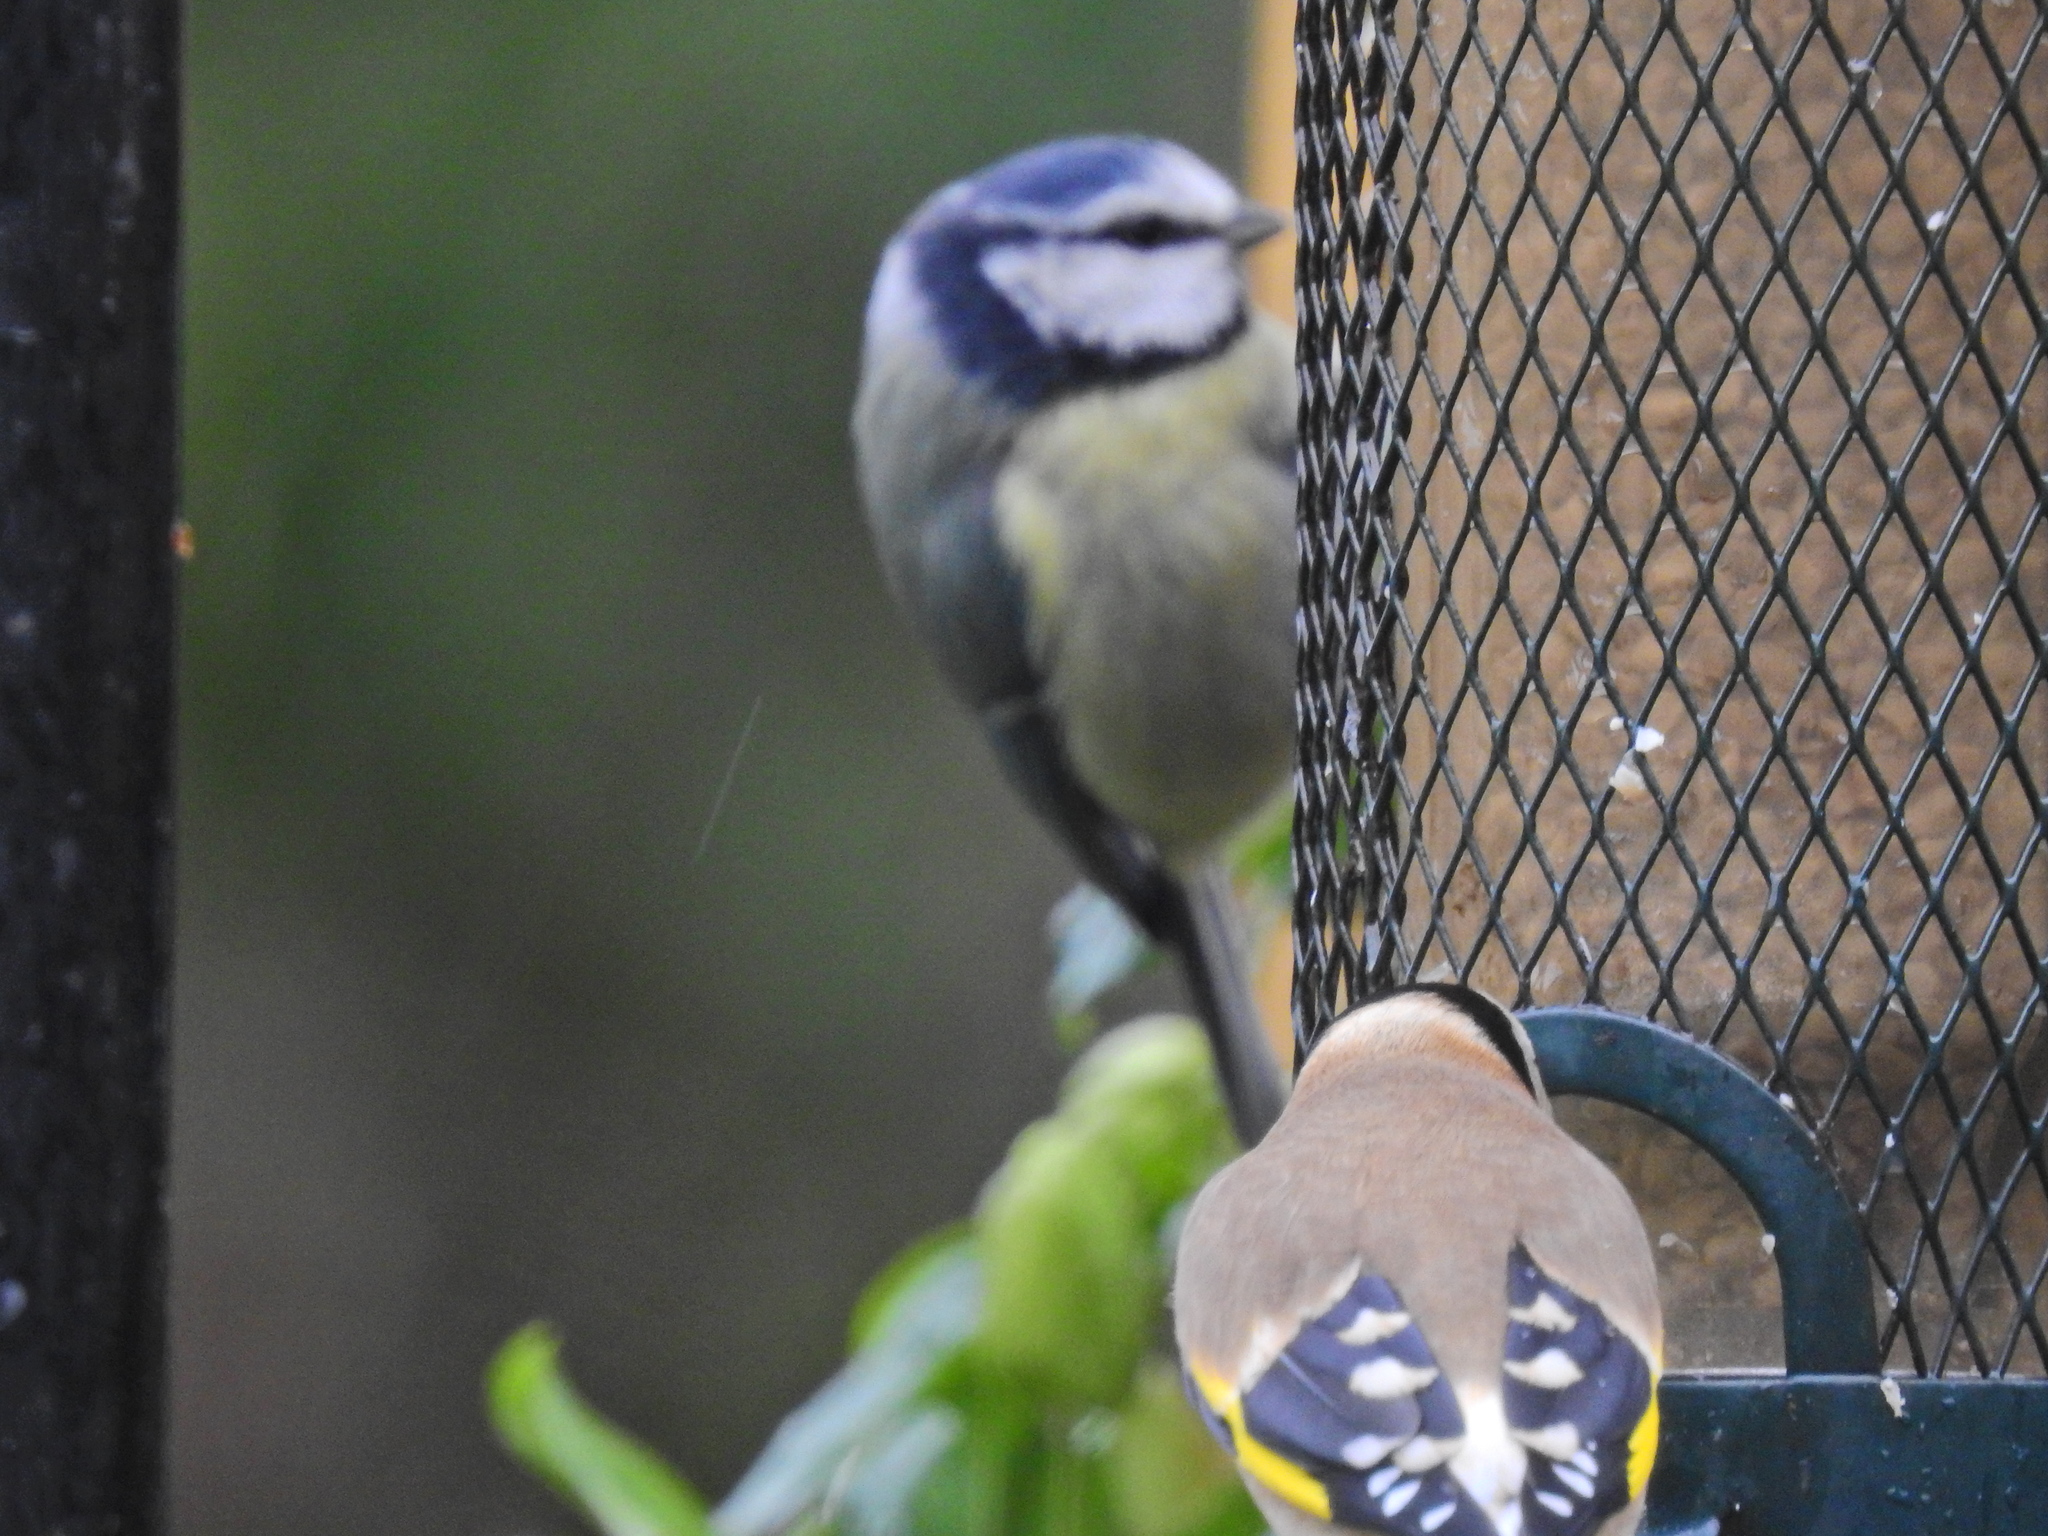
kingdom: Animalia
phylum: Chordata
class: Aves
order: Passeriformes
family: Paridae
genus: Cyanistes
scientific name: Cyanistes caeruleus
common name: Eurasian blue tit
